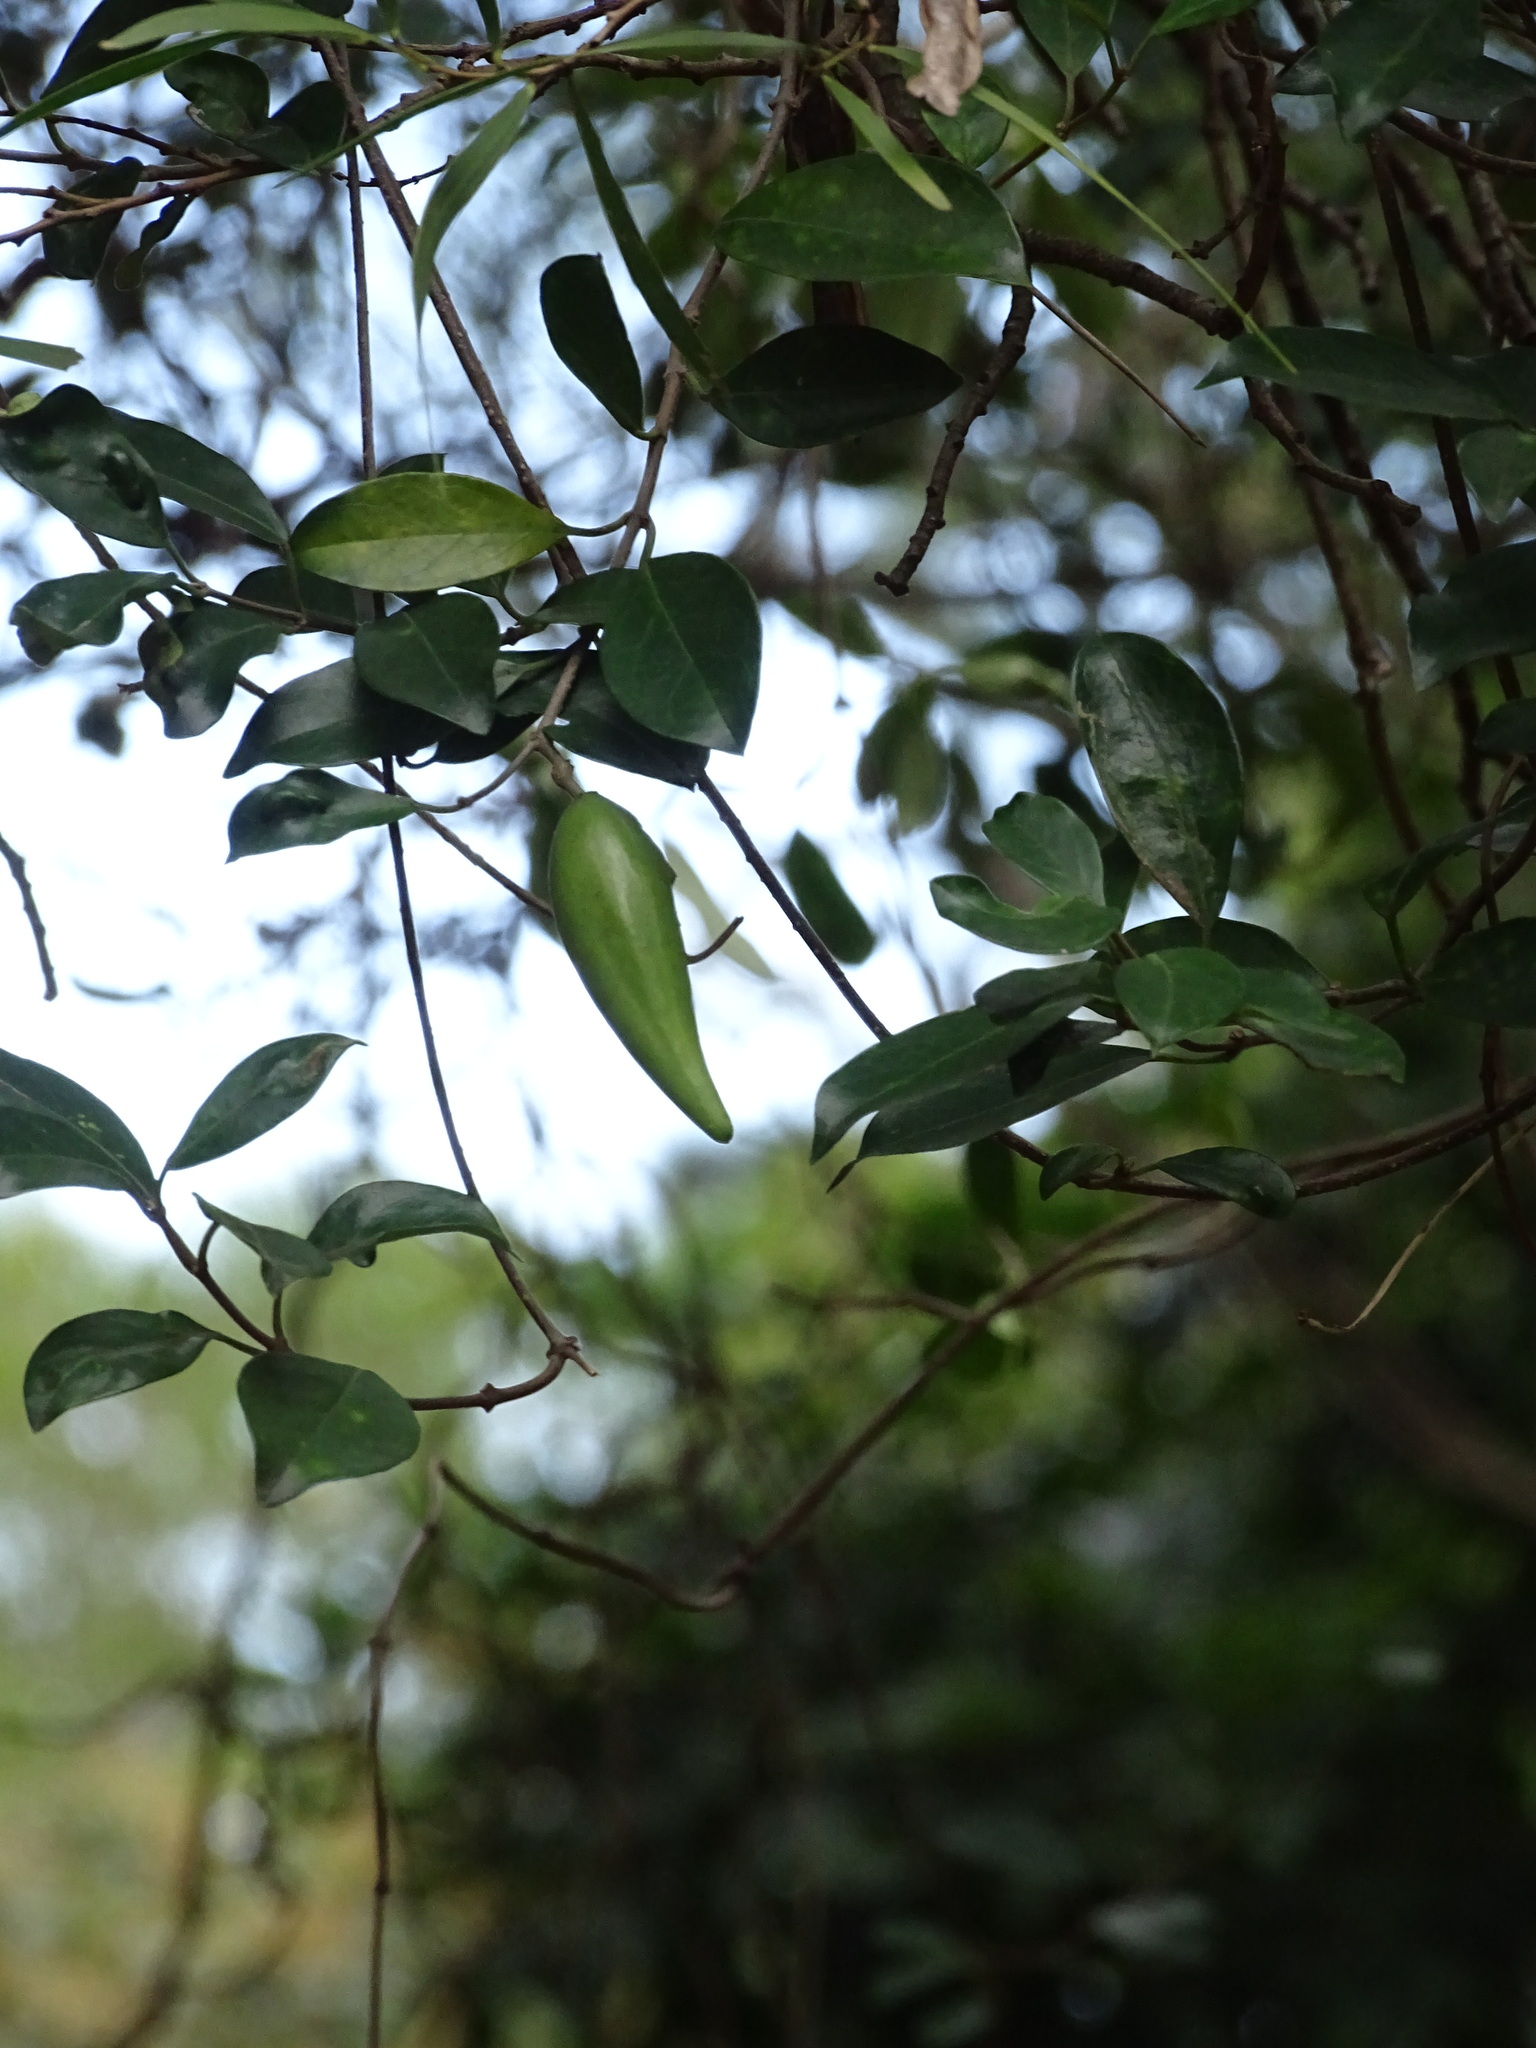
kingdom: Plantae
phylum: Tracheophyta
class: Magnoliopsida
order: Gentianales
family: Apocynaceae
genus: Gymnema
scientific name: Gymnema sylvestre
